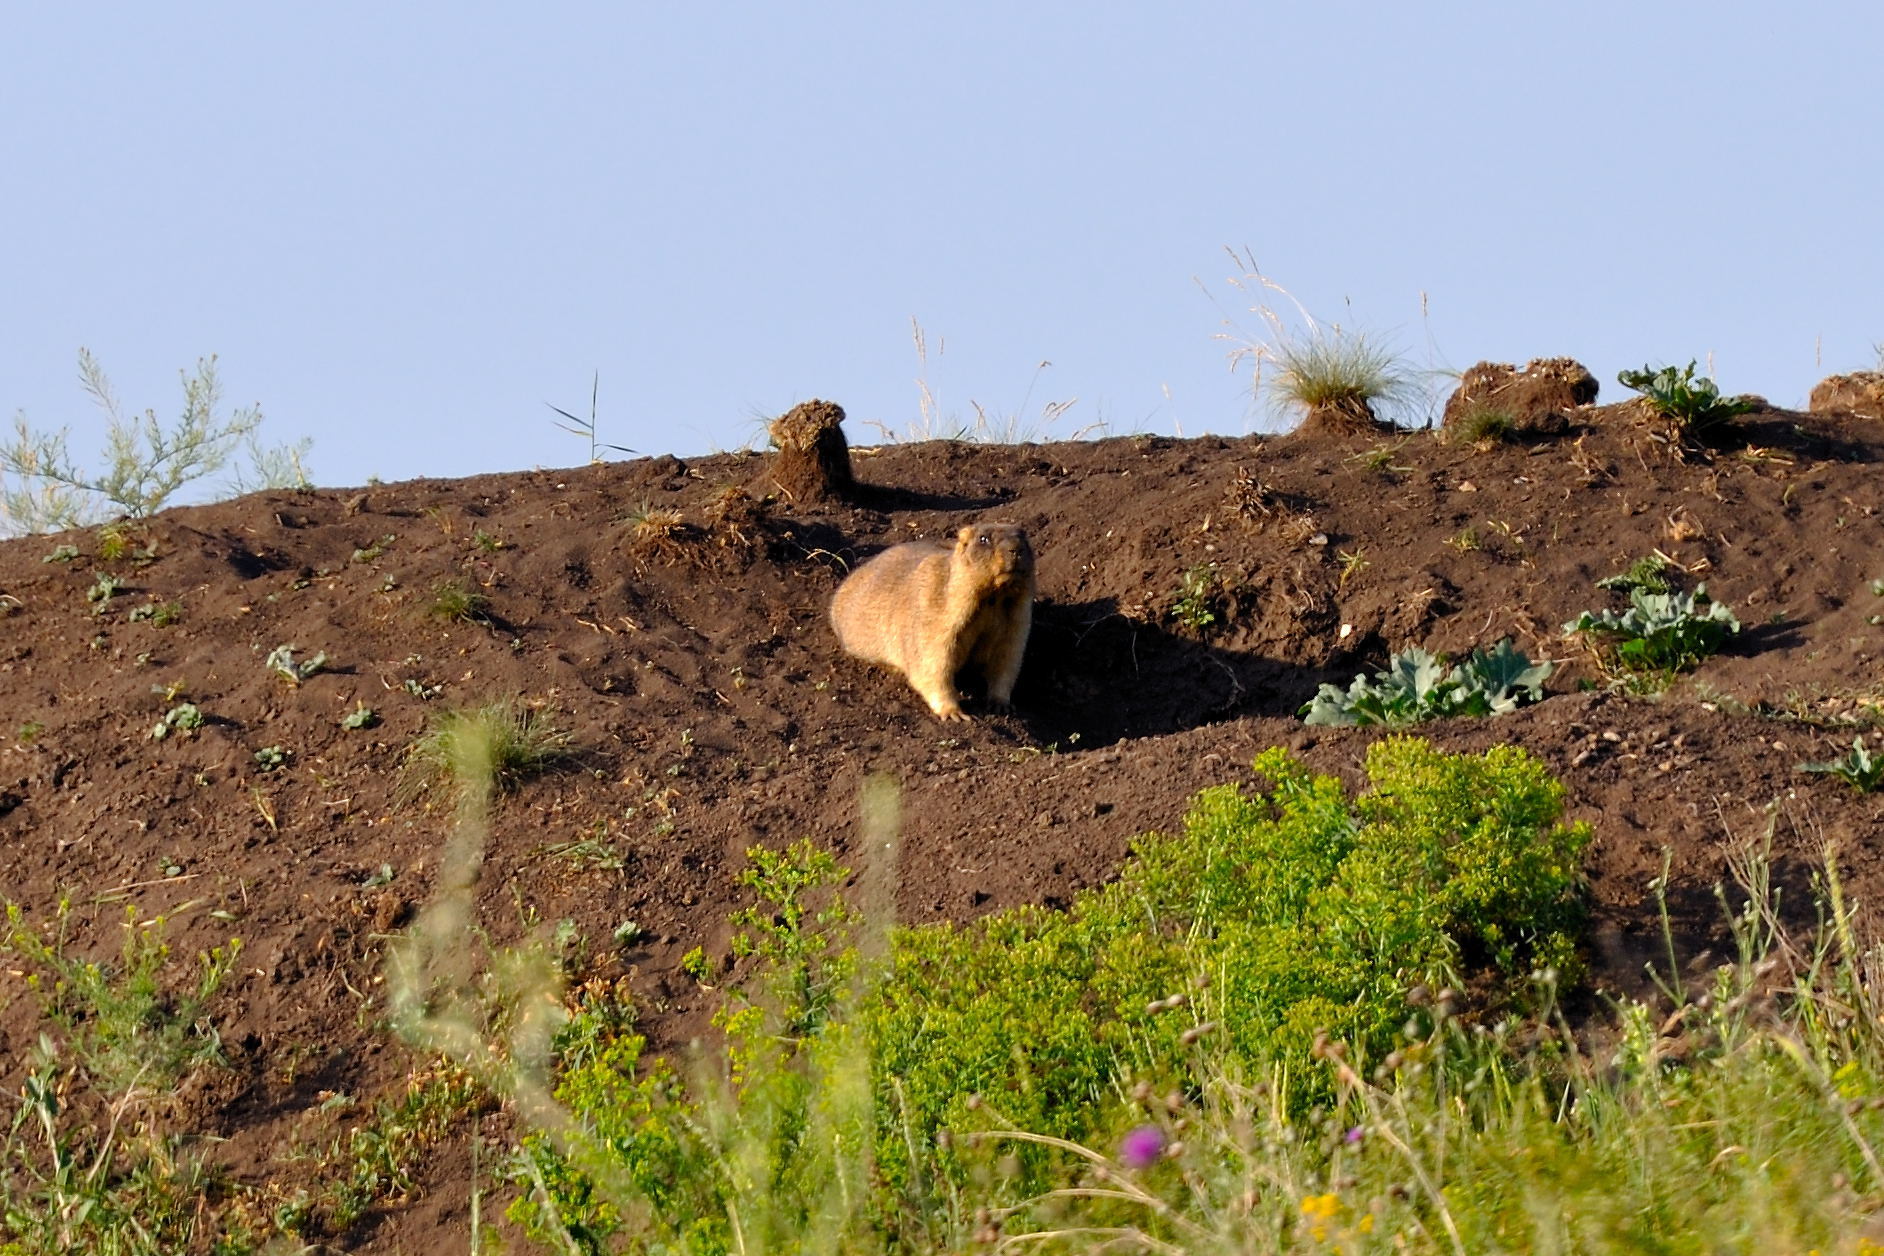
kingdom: Animalia
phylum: Chordata
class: Mammalia
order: Rodentia
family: Sciuridae
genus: Marmota
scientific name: Marmota bobak
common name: Bobak marmot
